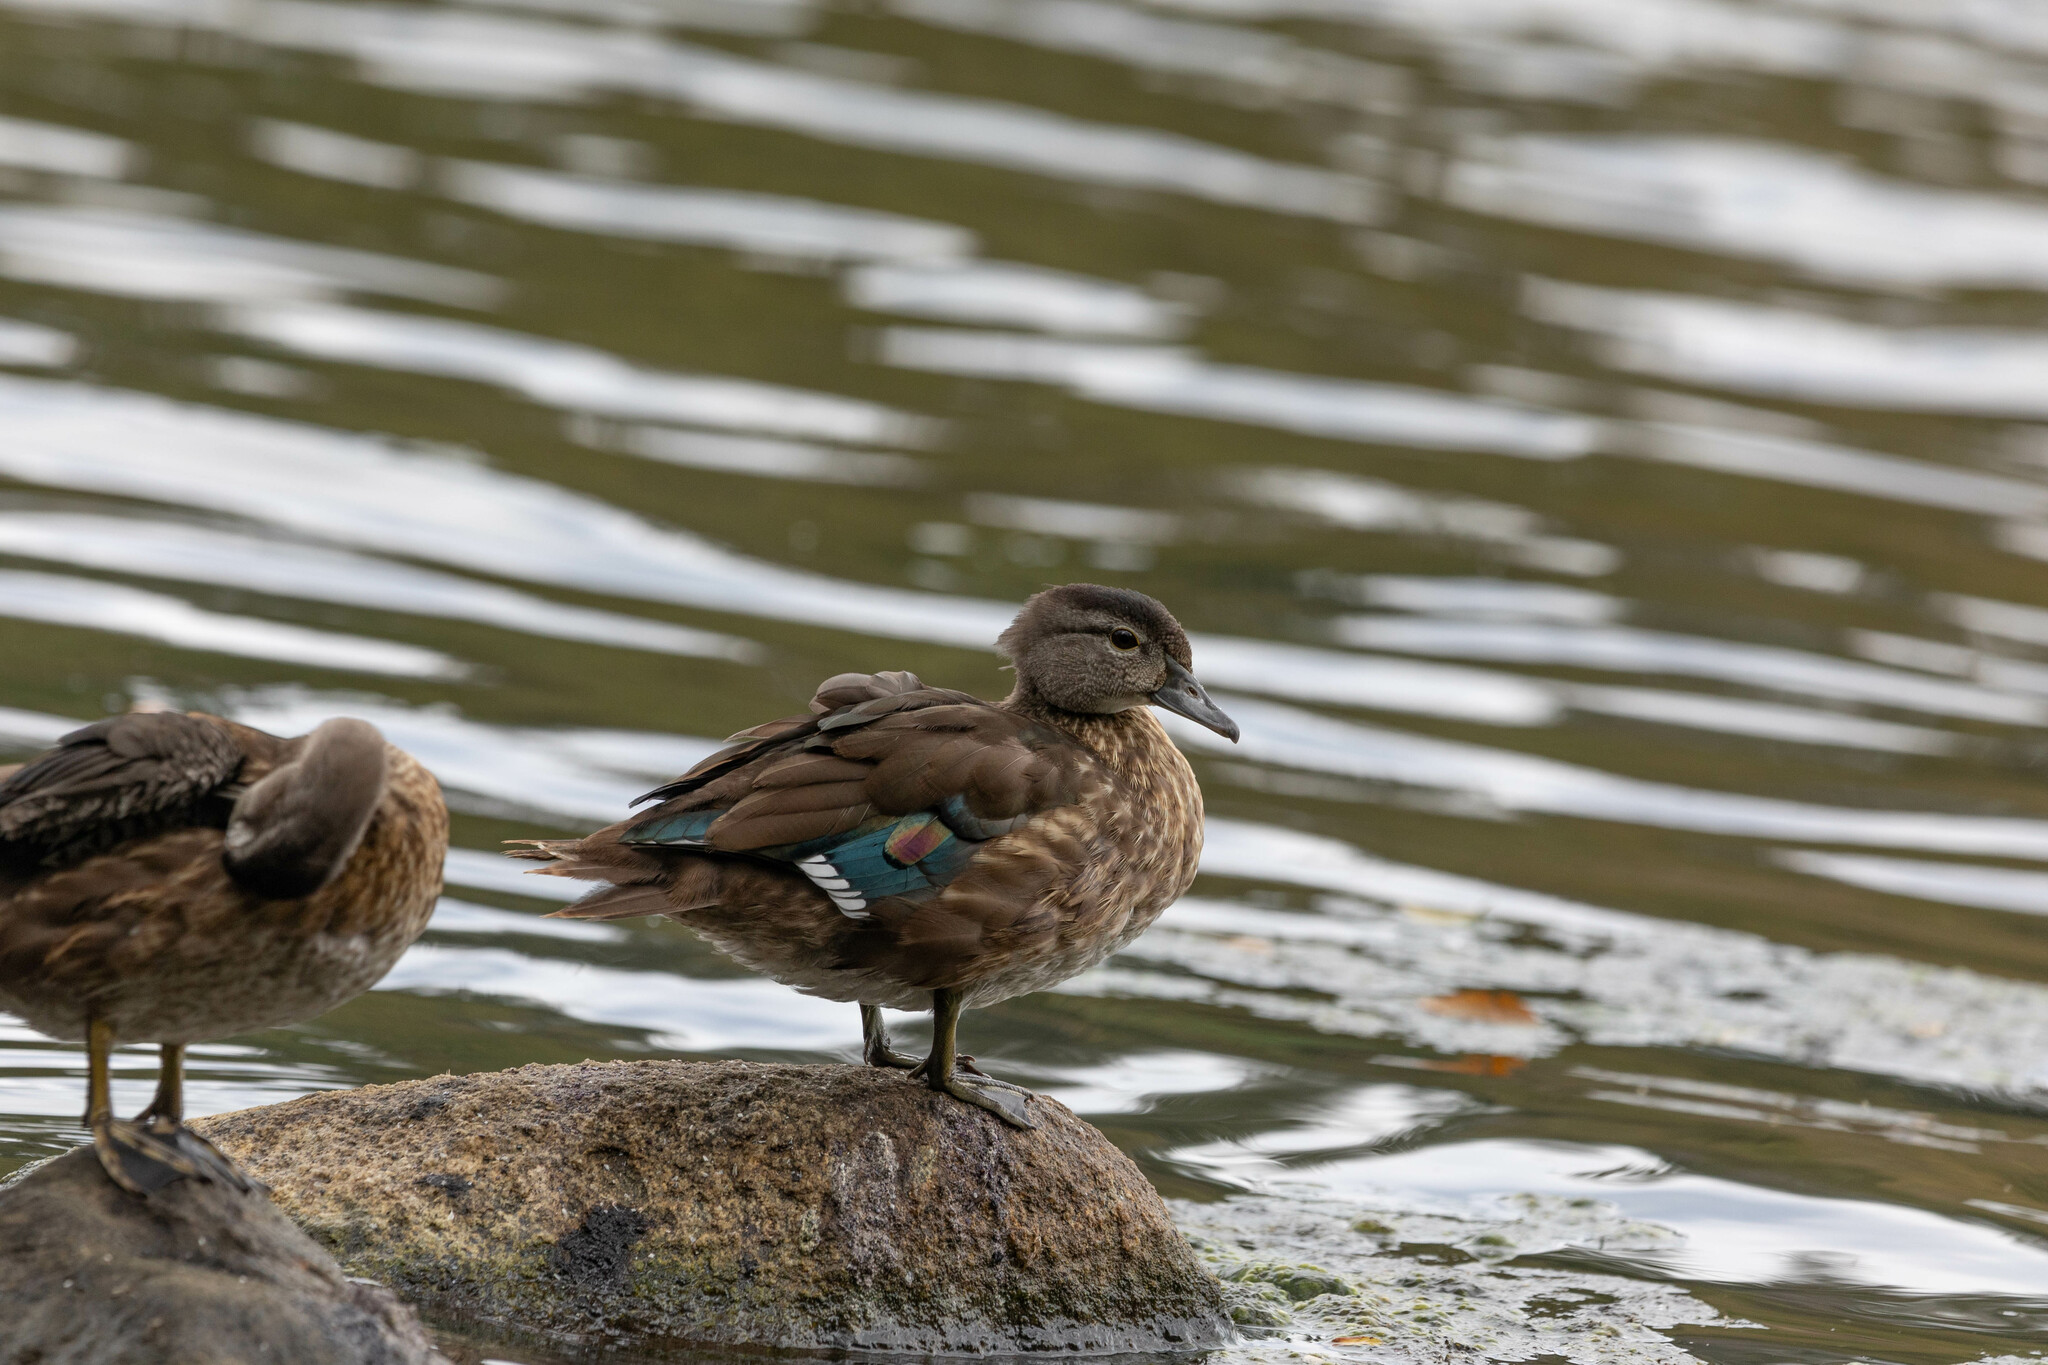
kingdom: Animalia
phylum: Chordata
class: Aves
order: Anseriformes
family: Anatidae
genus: Aix
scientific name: Aix sponsa
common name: Wood duck
